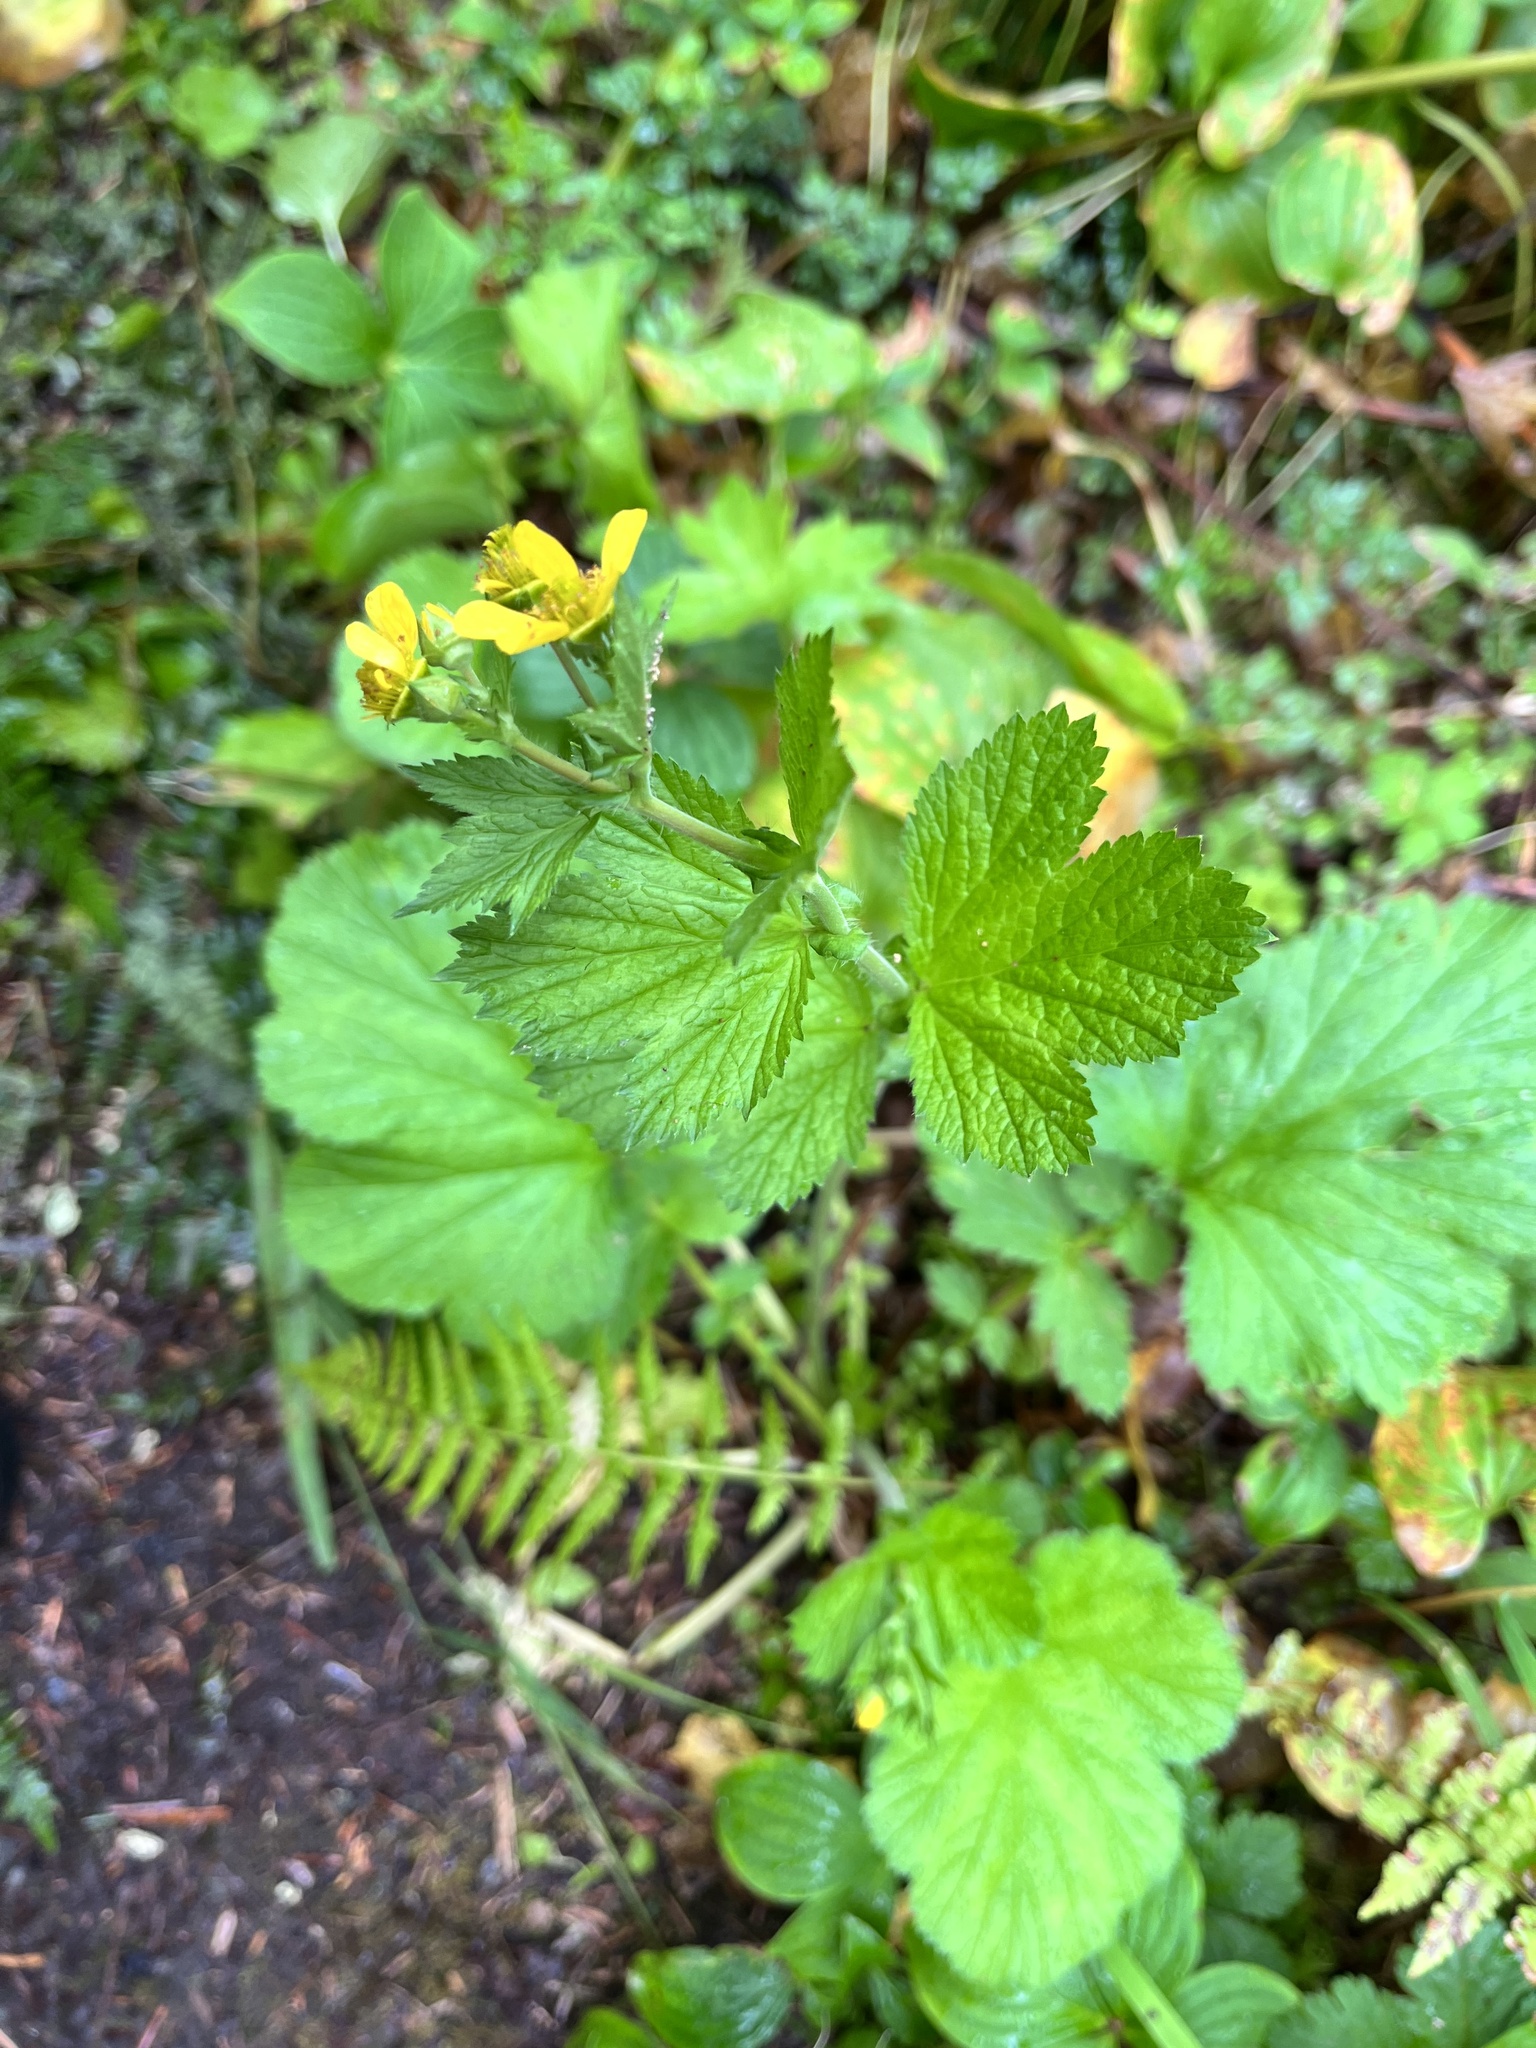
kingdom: Plantae
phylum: Tracheophyta
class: Magnoliopsida
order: Rosales
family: Rosaceae
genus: Geum
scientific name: Geum macrophyllum
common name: Large-leaved avens
